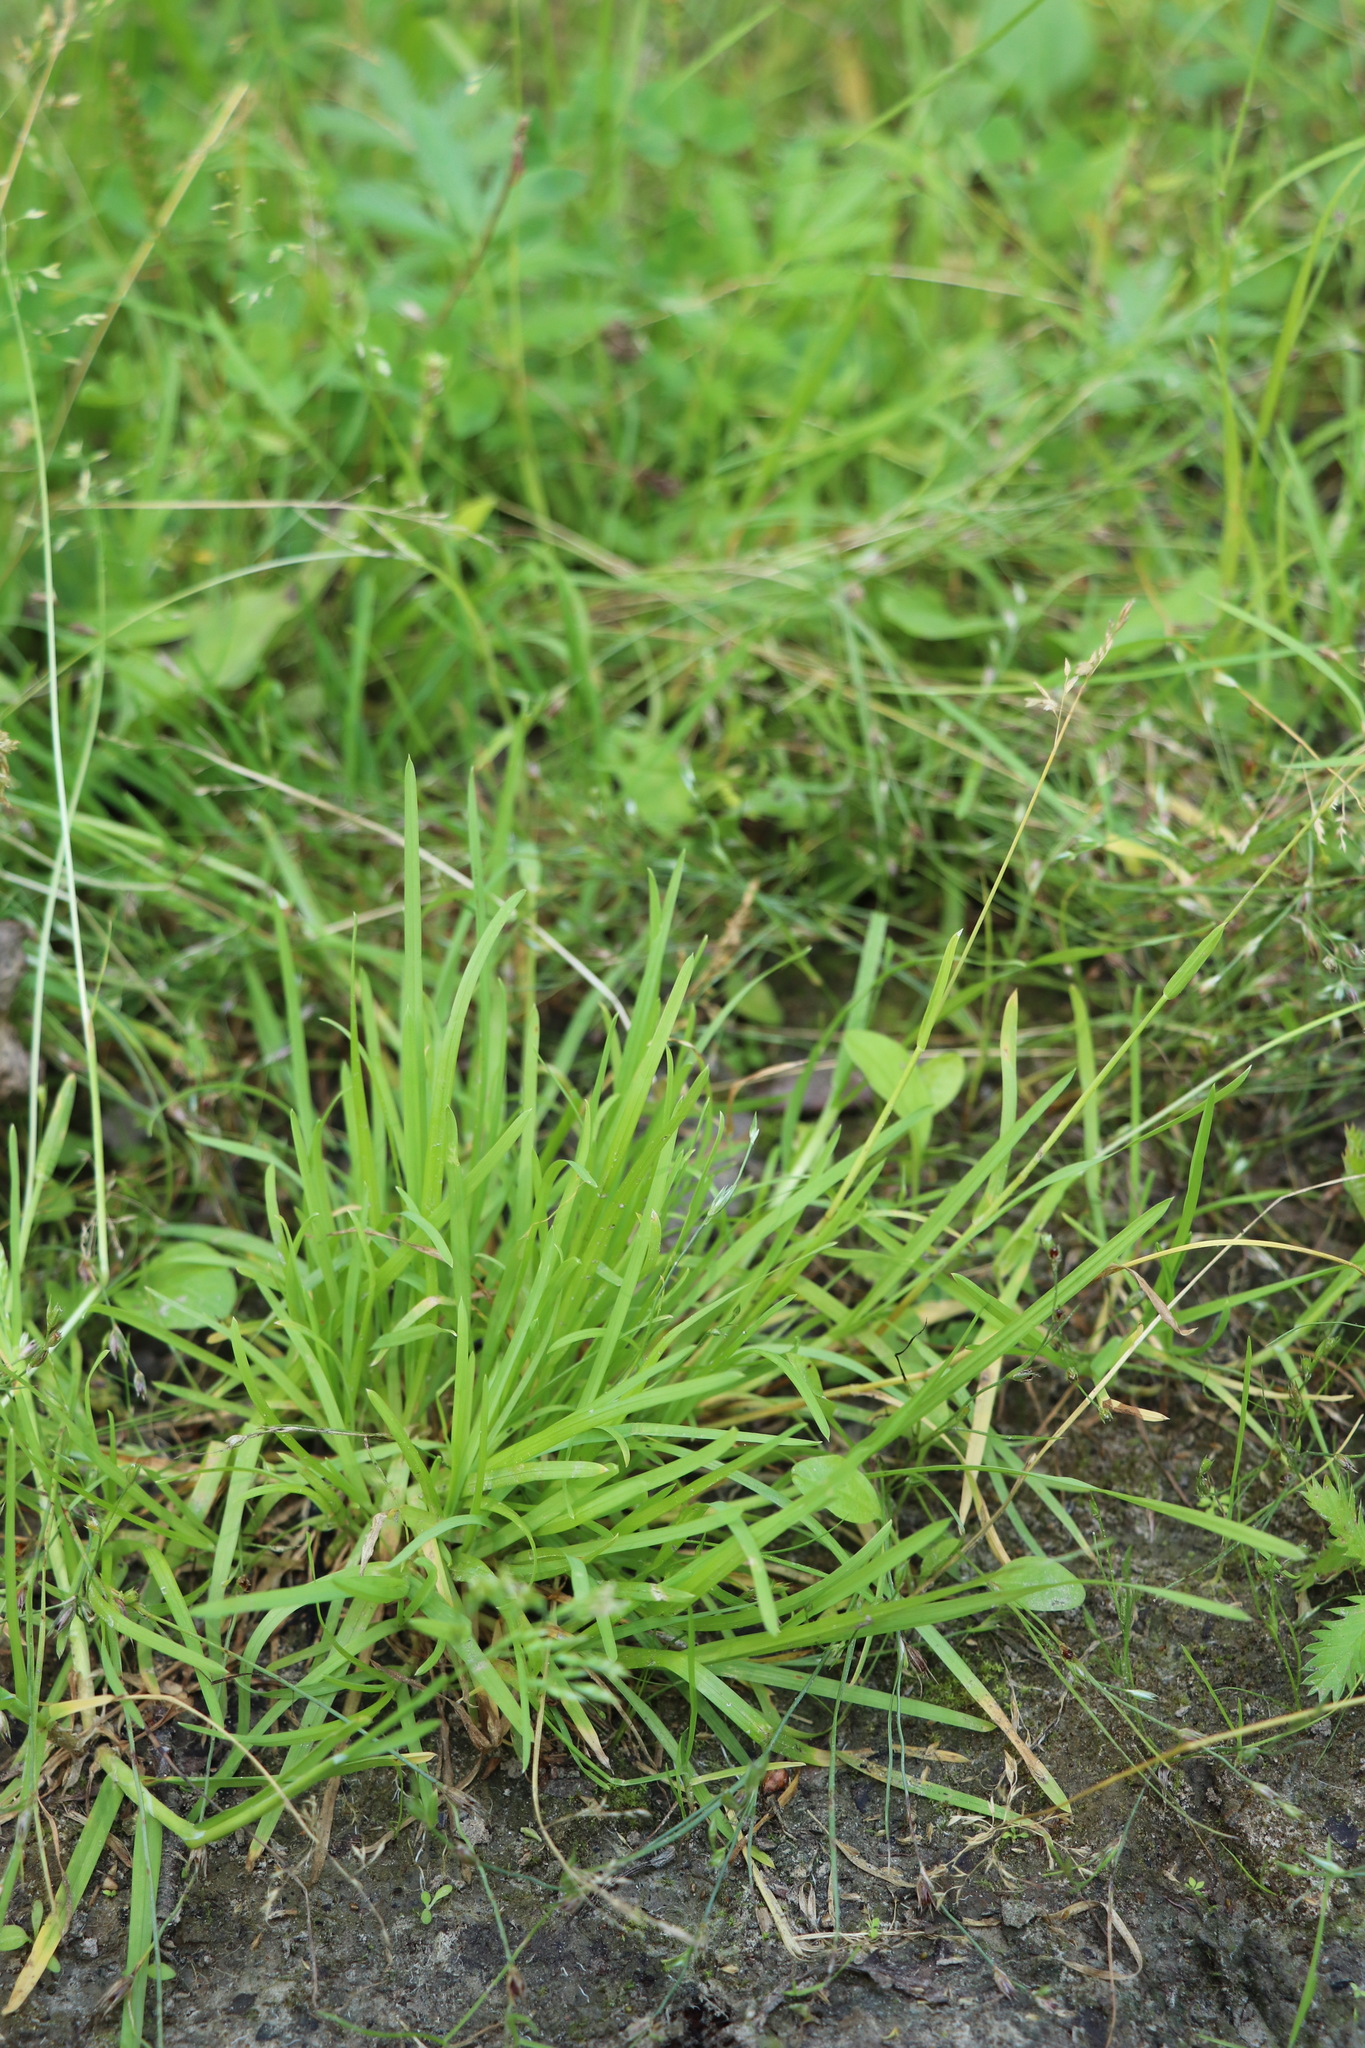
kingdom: Plantae
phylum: Tracheophyta
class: Liliopsida
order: Poales
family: Poaceae
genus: Poa
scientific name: Poa annua
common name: Annual bluegrass
